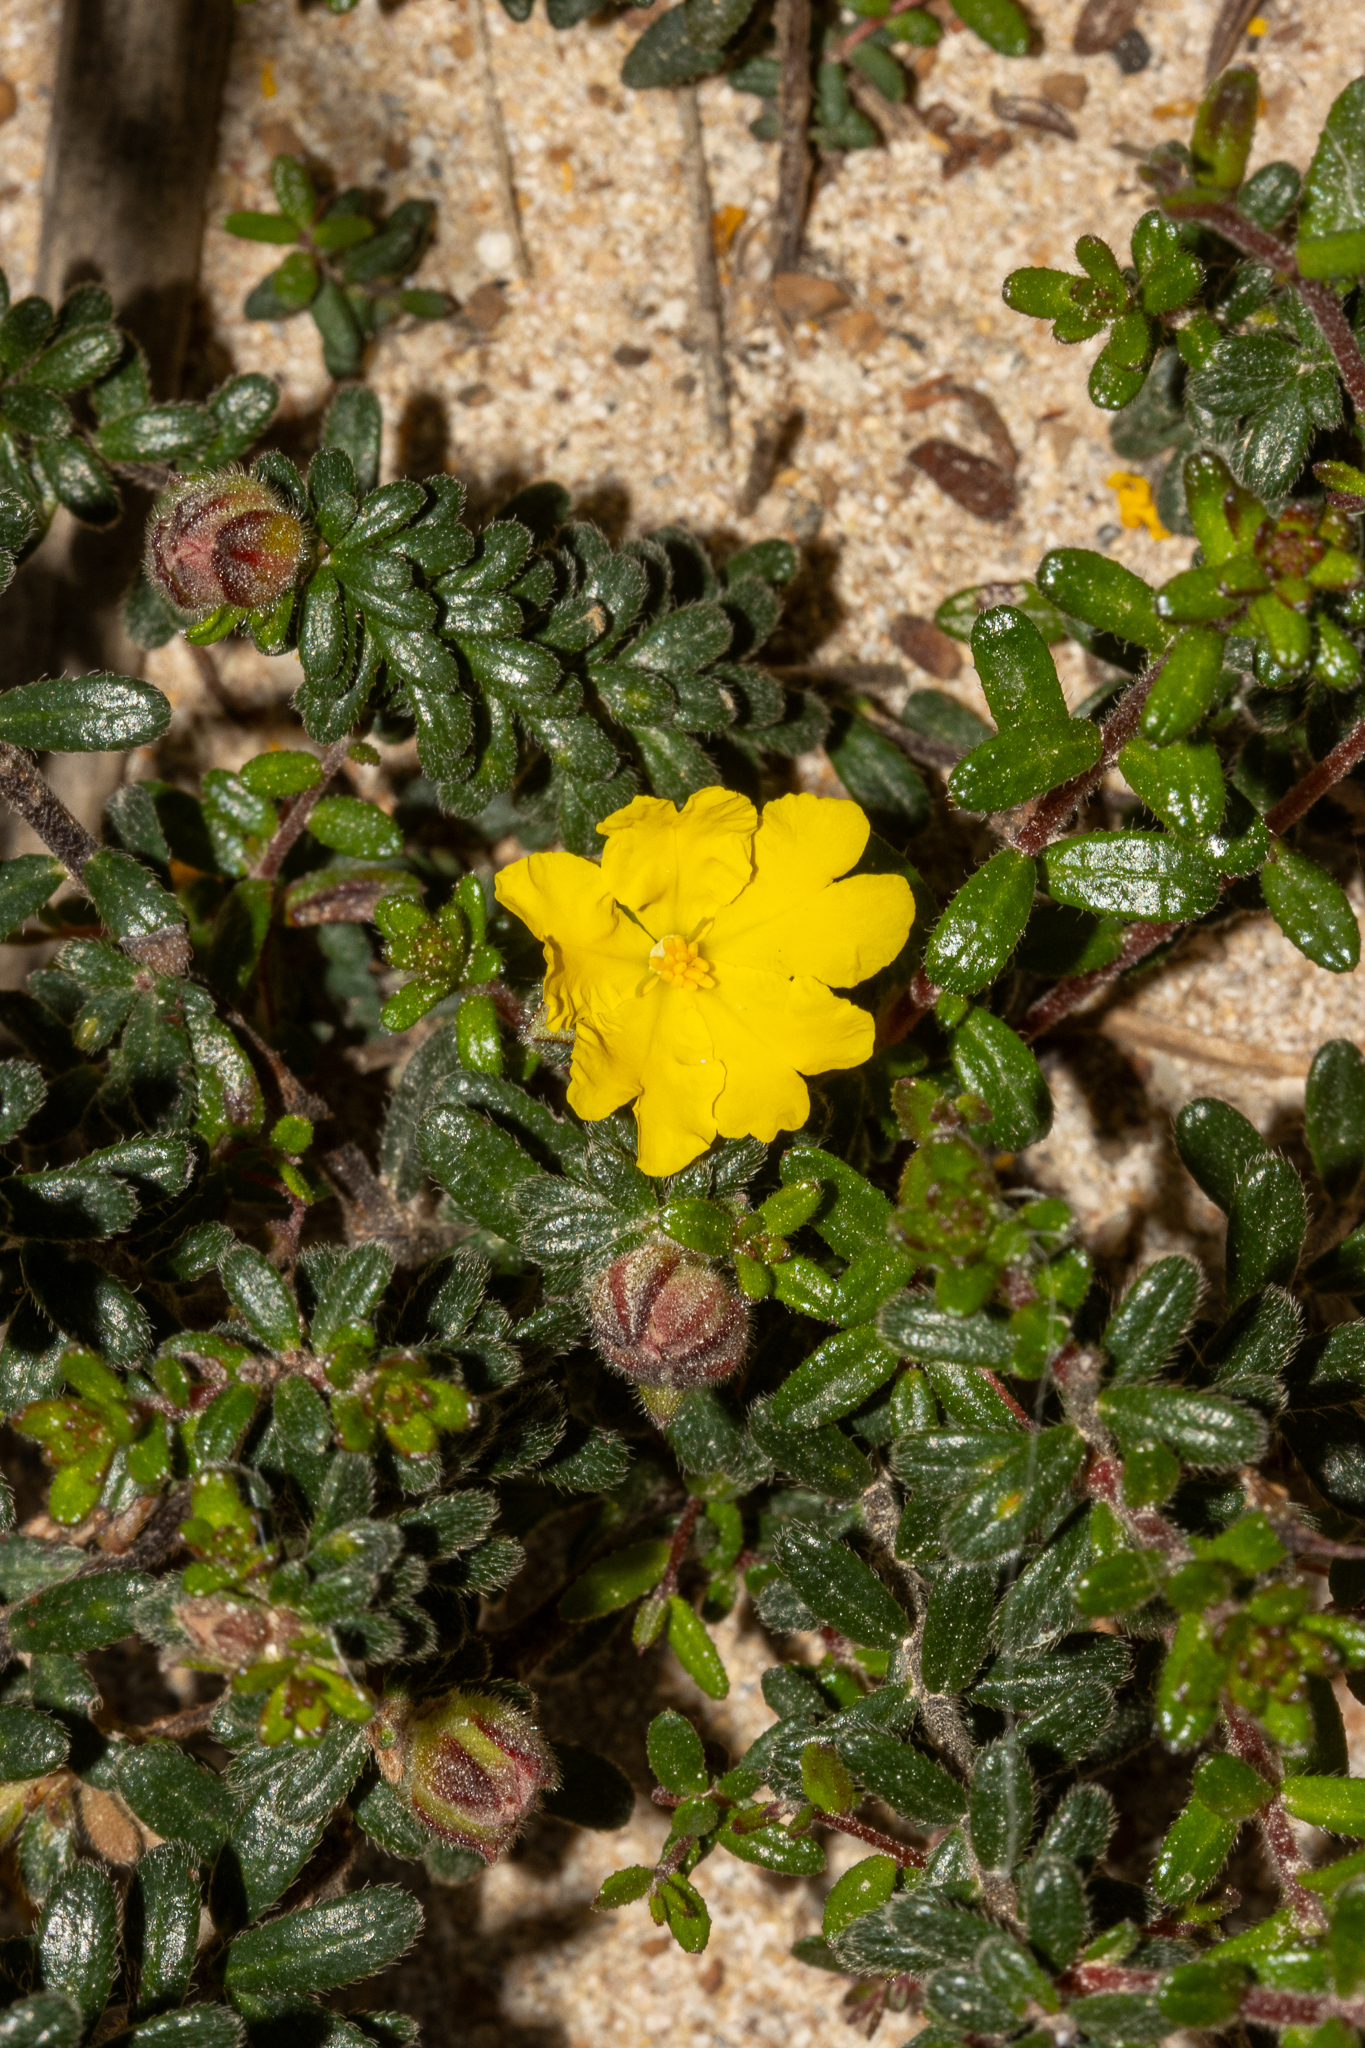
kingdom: Plantae
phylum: Tracheophyta
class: Magnoliopsida
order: Dilleniales
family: Dilleniaceae
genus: Hibbertia
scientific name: Hibbertia platyphylla
